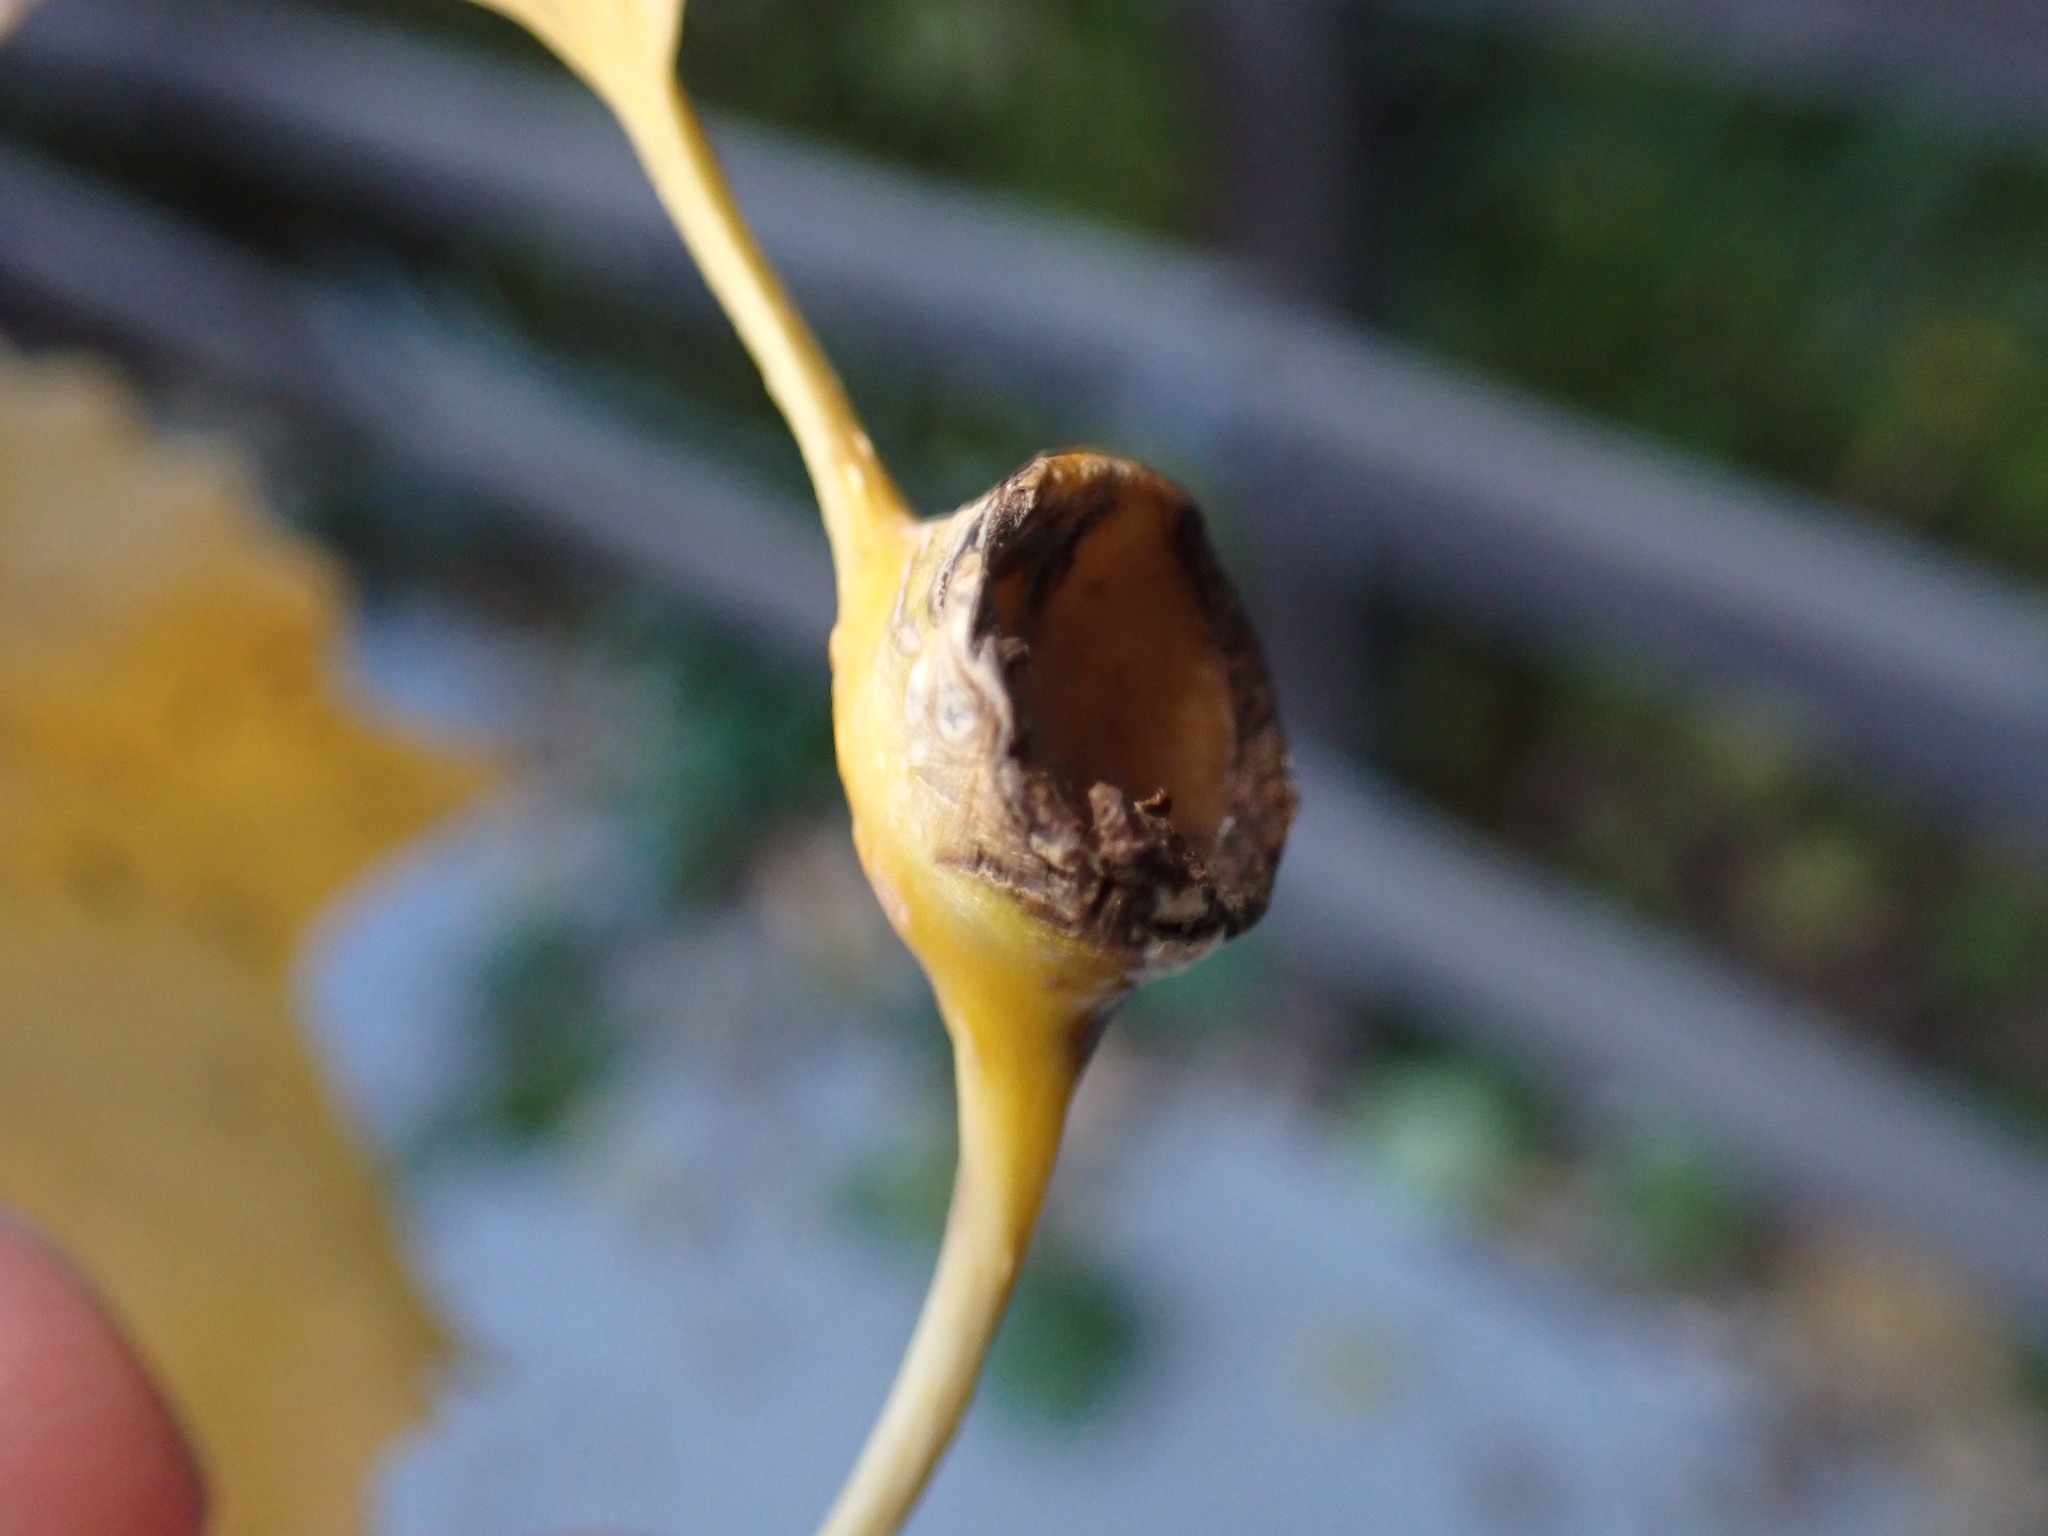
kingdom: Animalia
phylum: Arthropoda
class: Insecta
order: Hemiptera
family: Aphididae
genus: Pemphigus
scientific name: Pemphigus obesinymphae
